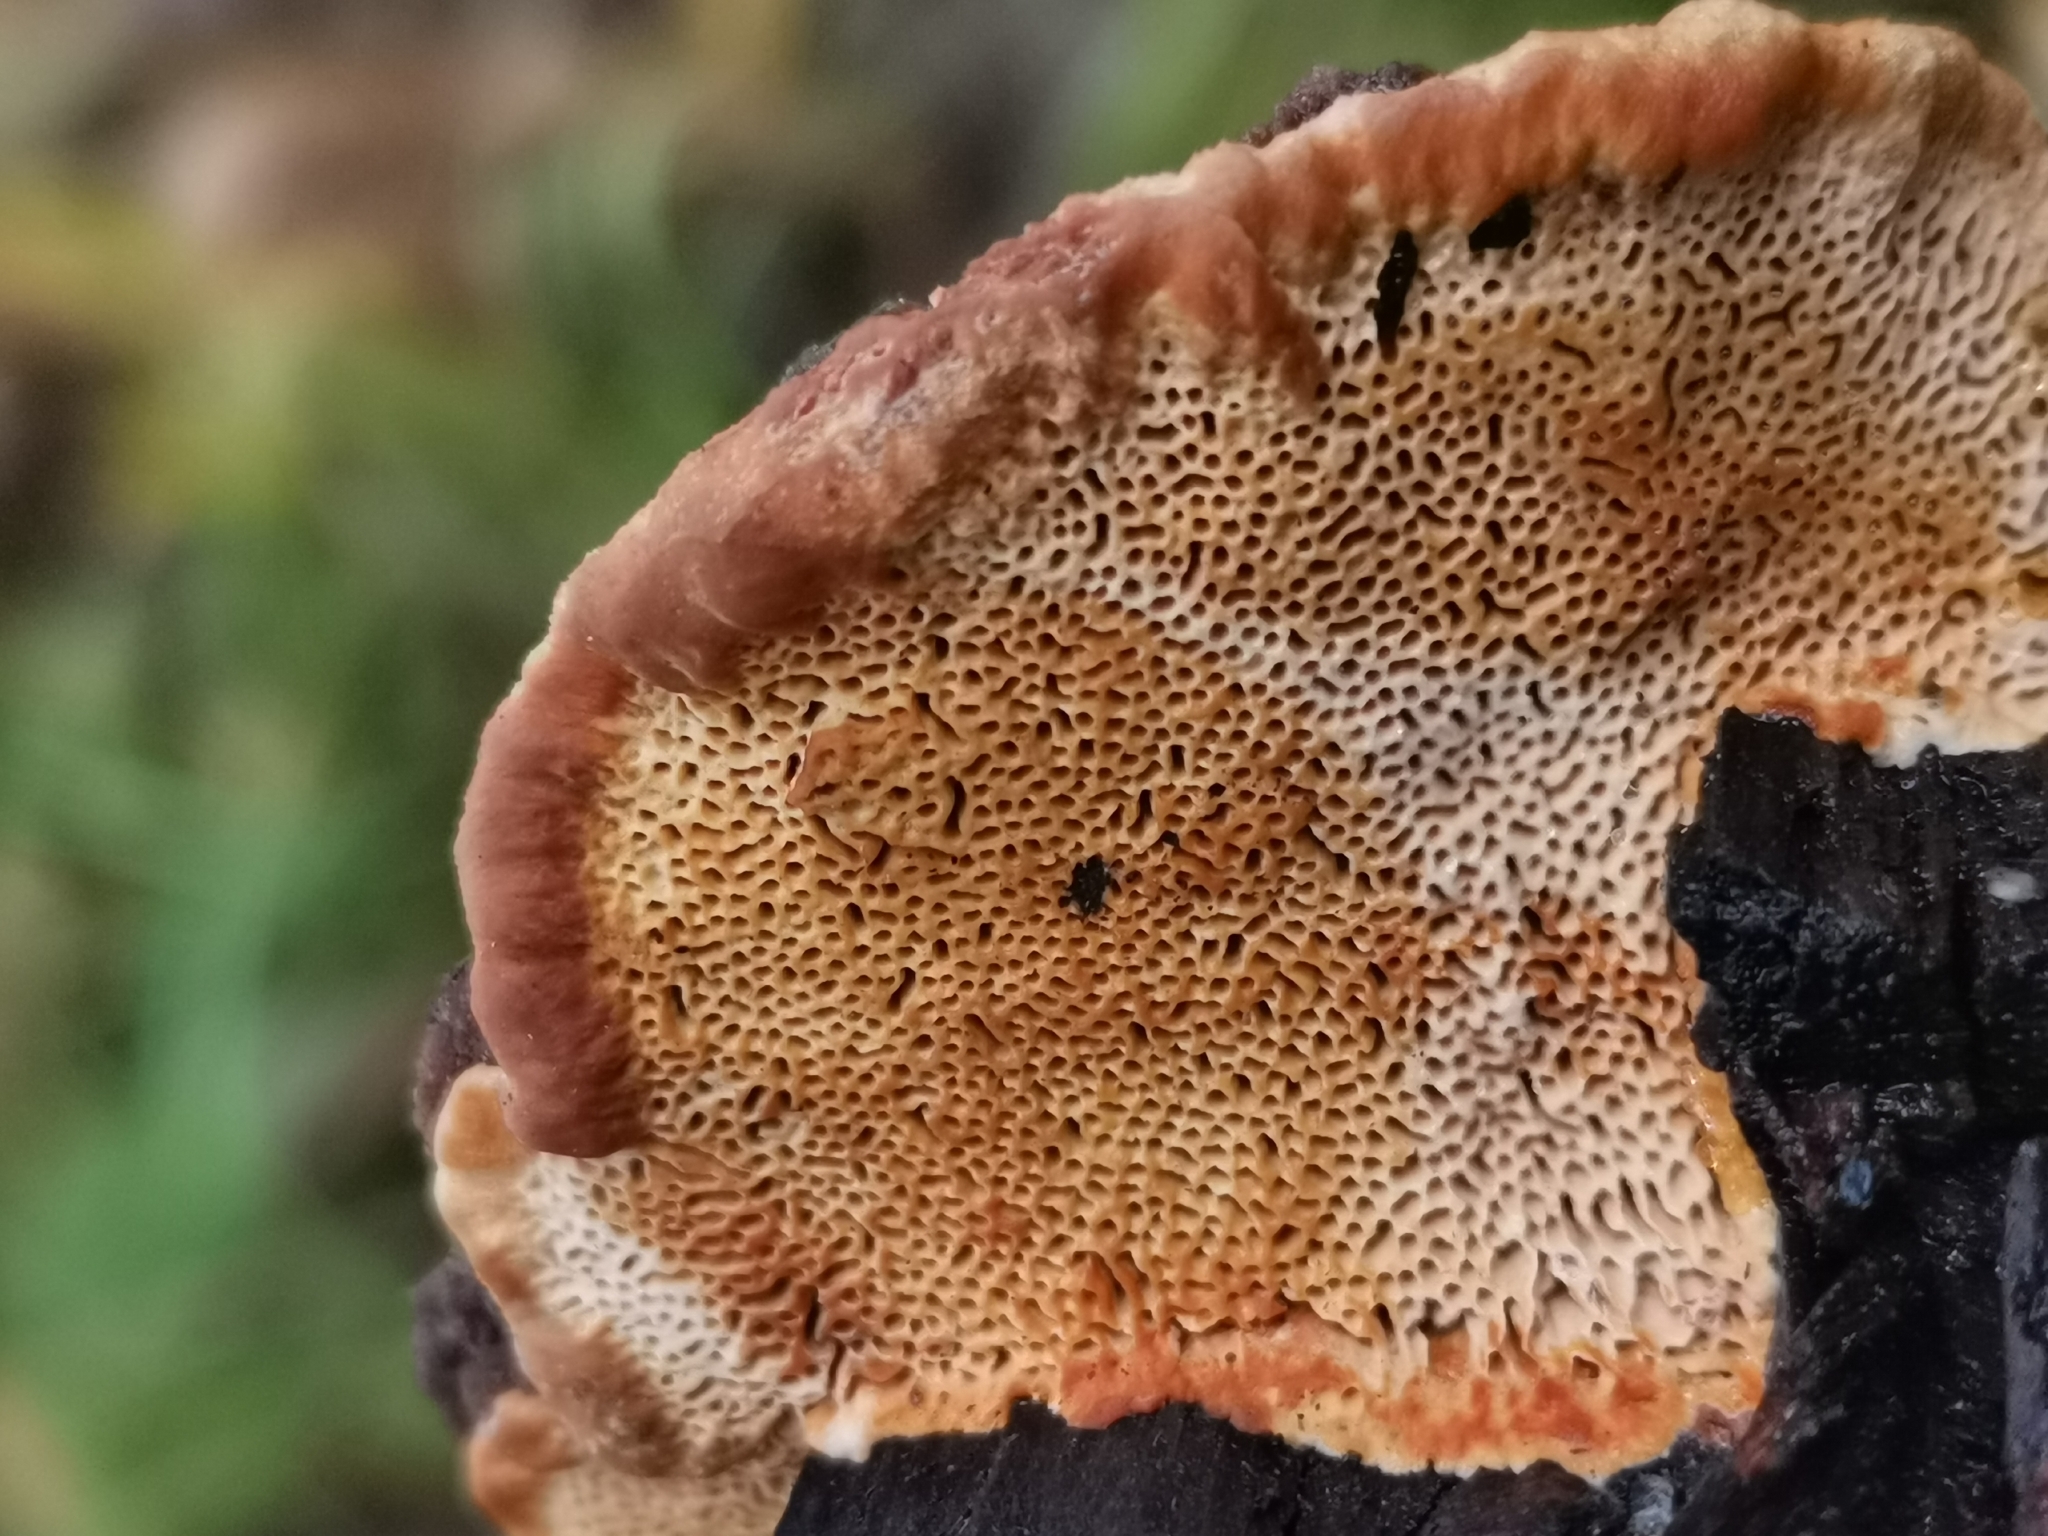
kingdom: Fungi
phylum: Basidiomycota
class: Agaricomycetes
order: Gloeophyllales
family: Gloeophyllaceae
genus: Gloeophyllum
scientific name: Gloeophyllum odoratum
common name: Anise mazegill
